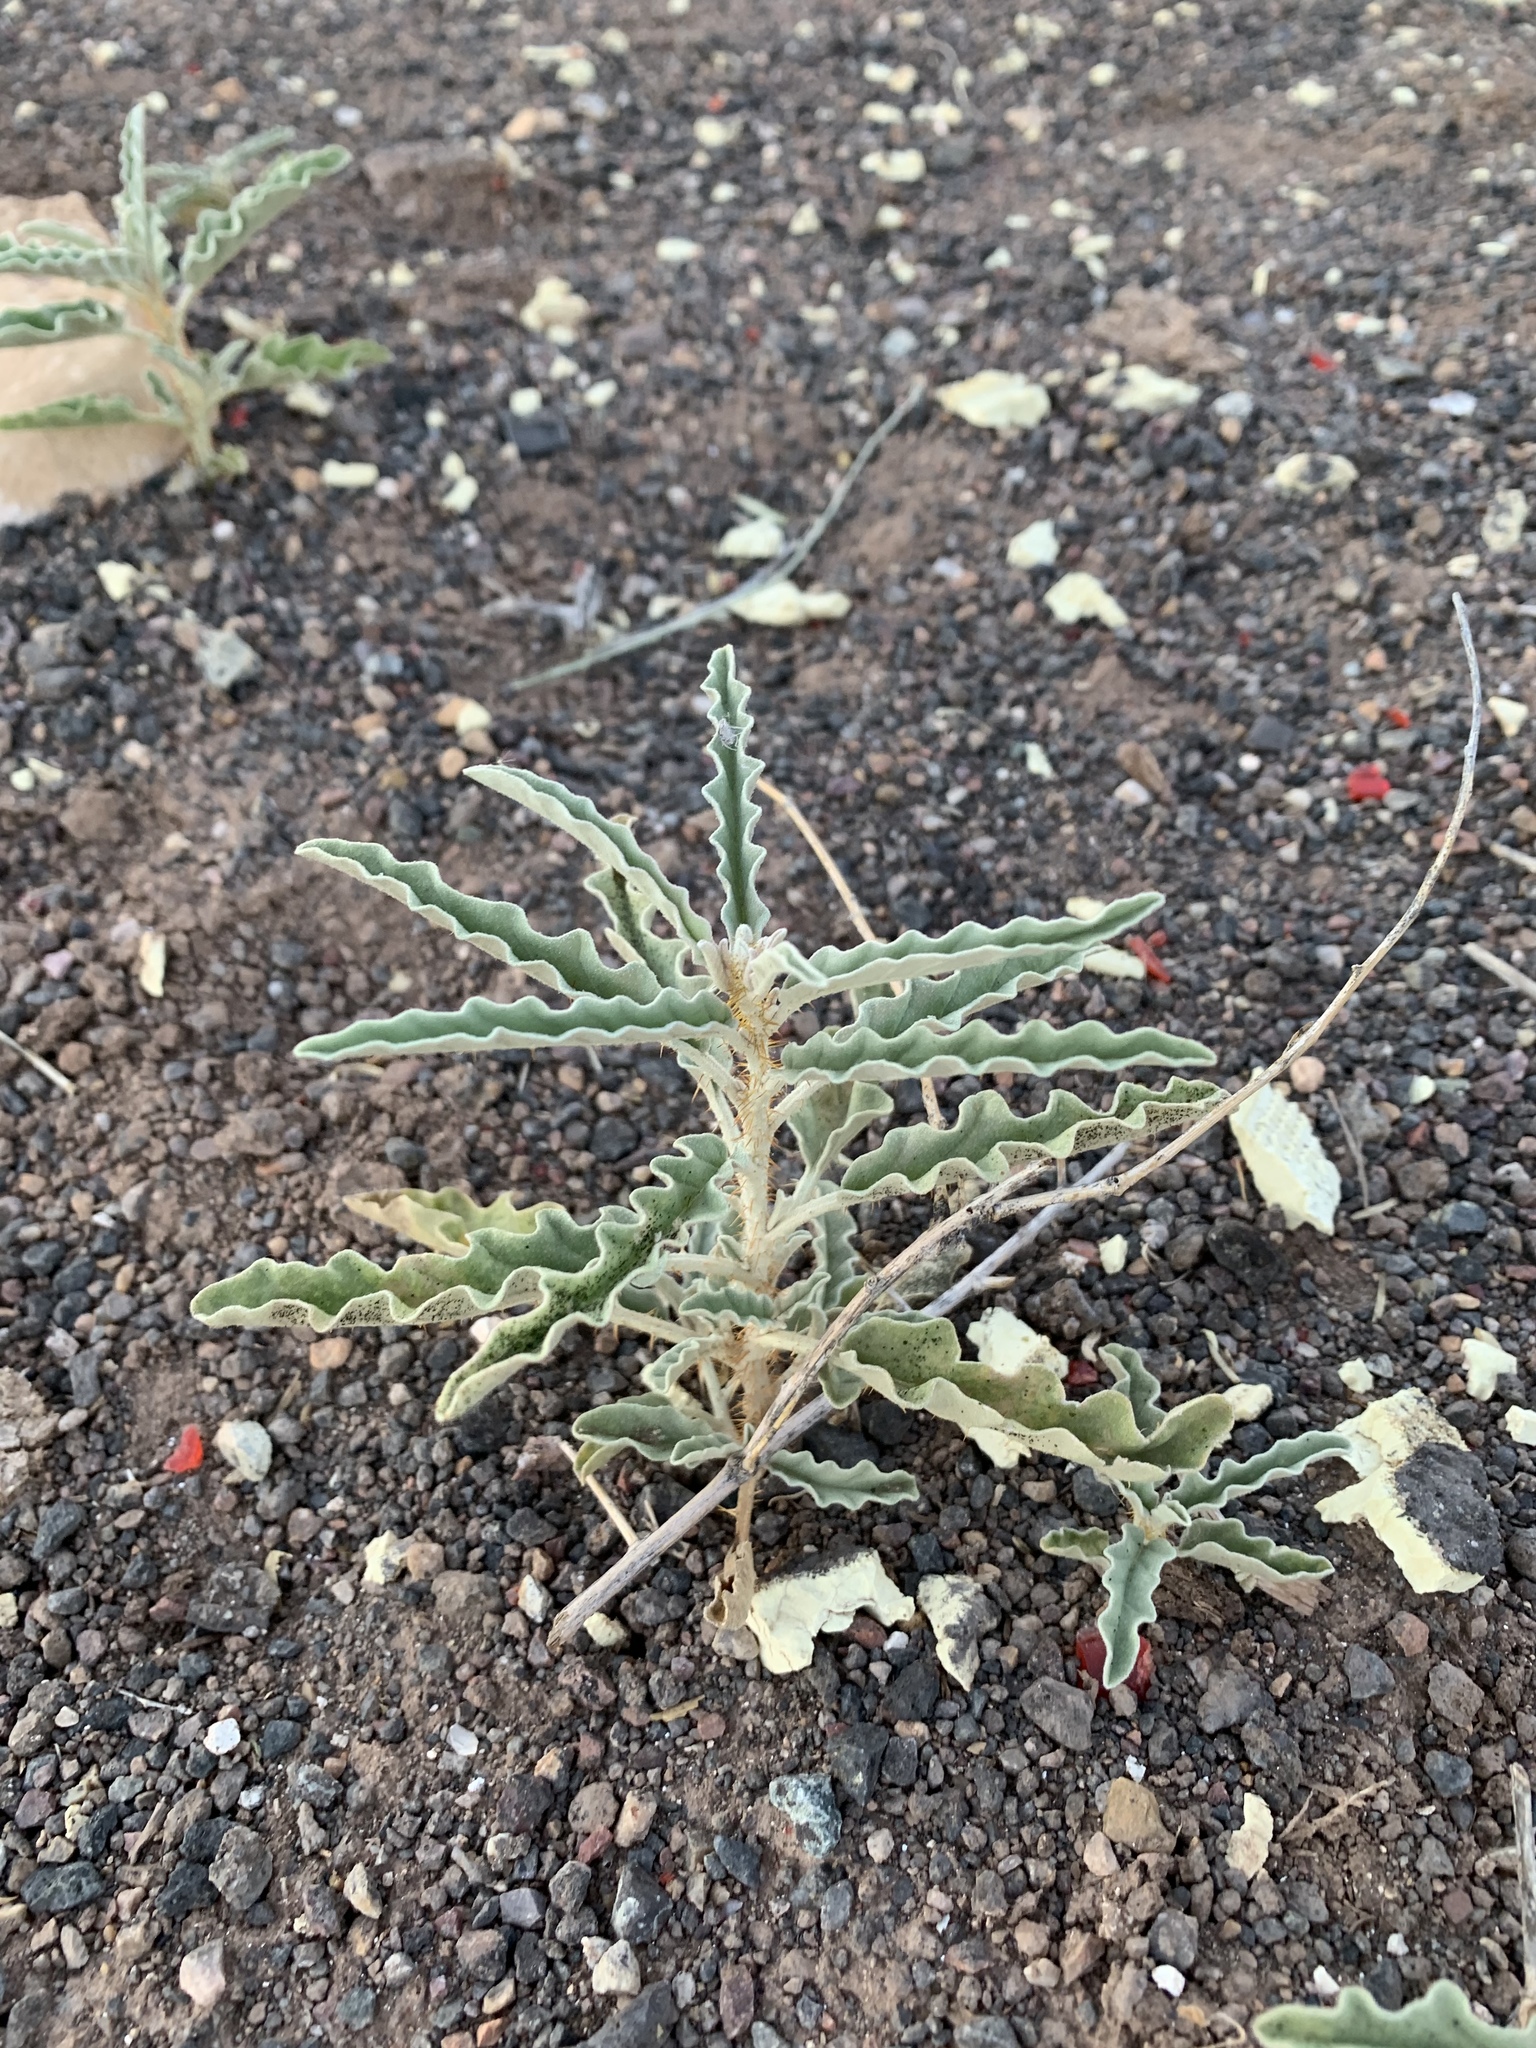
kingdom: Plantae
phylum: Tracheophyta
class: Magnoliopsida
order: Solanales
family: Solanaceae
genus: Solanum
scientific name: Solanum elaeagnifolium
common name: Silverleaf nightshade
